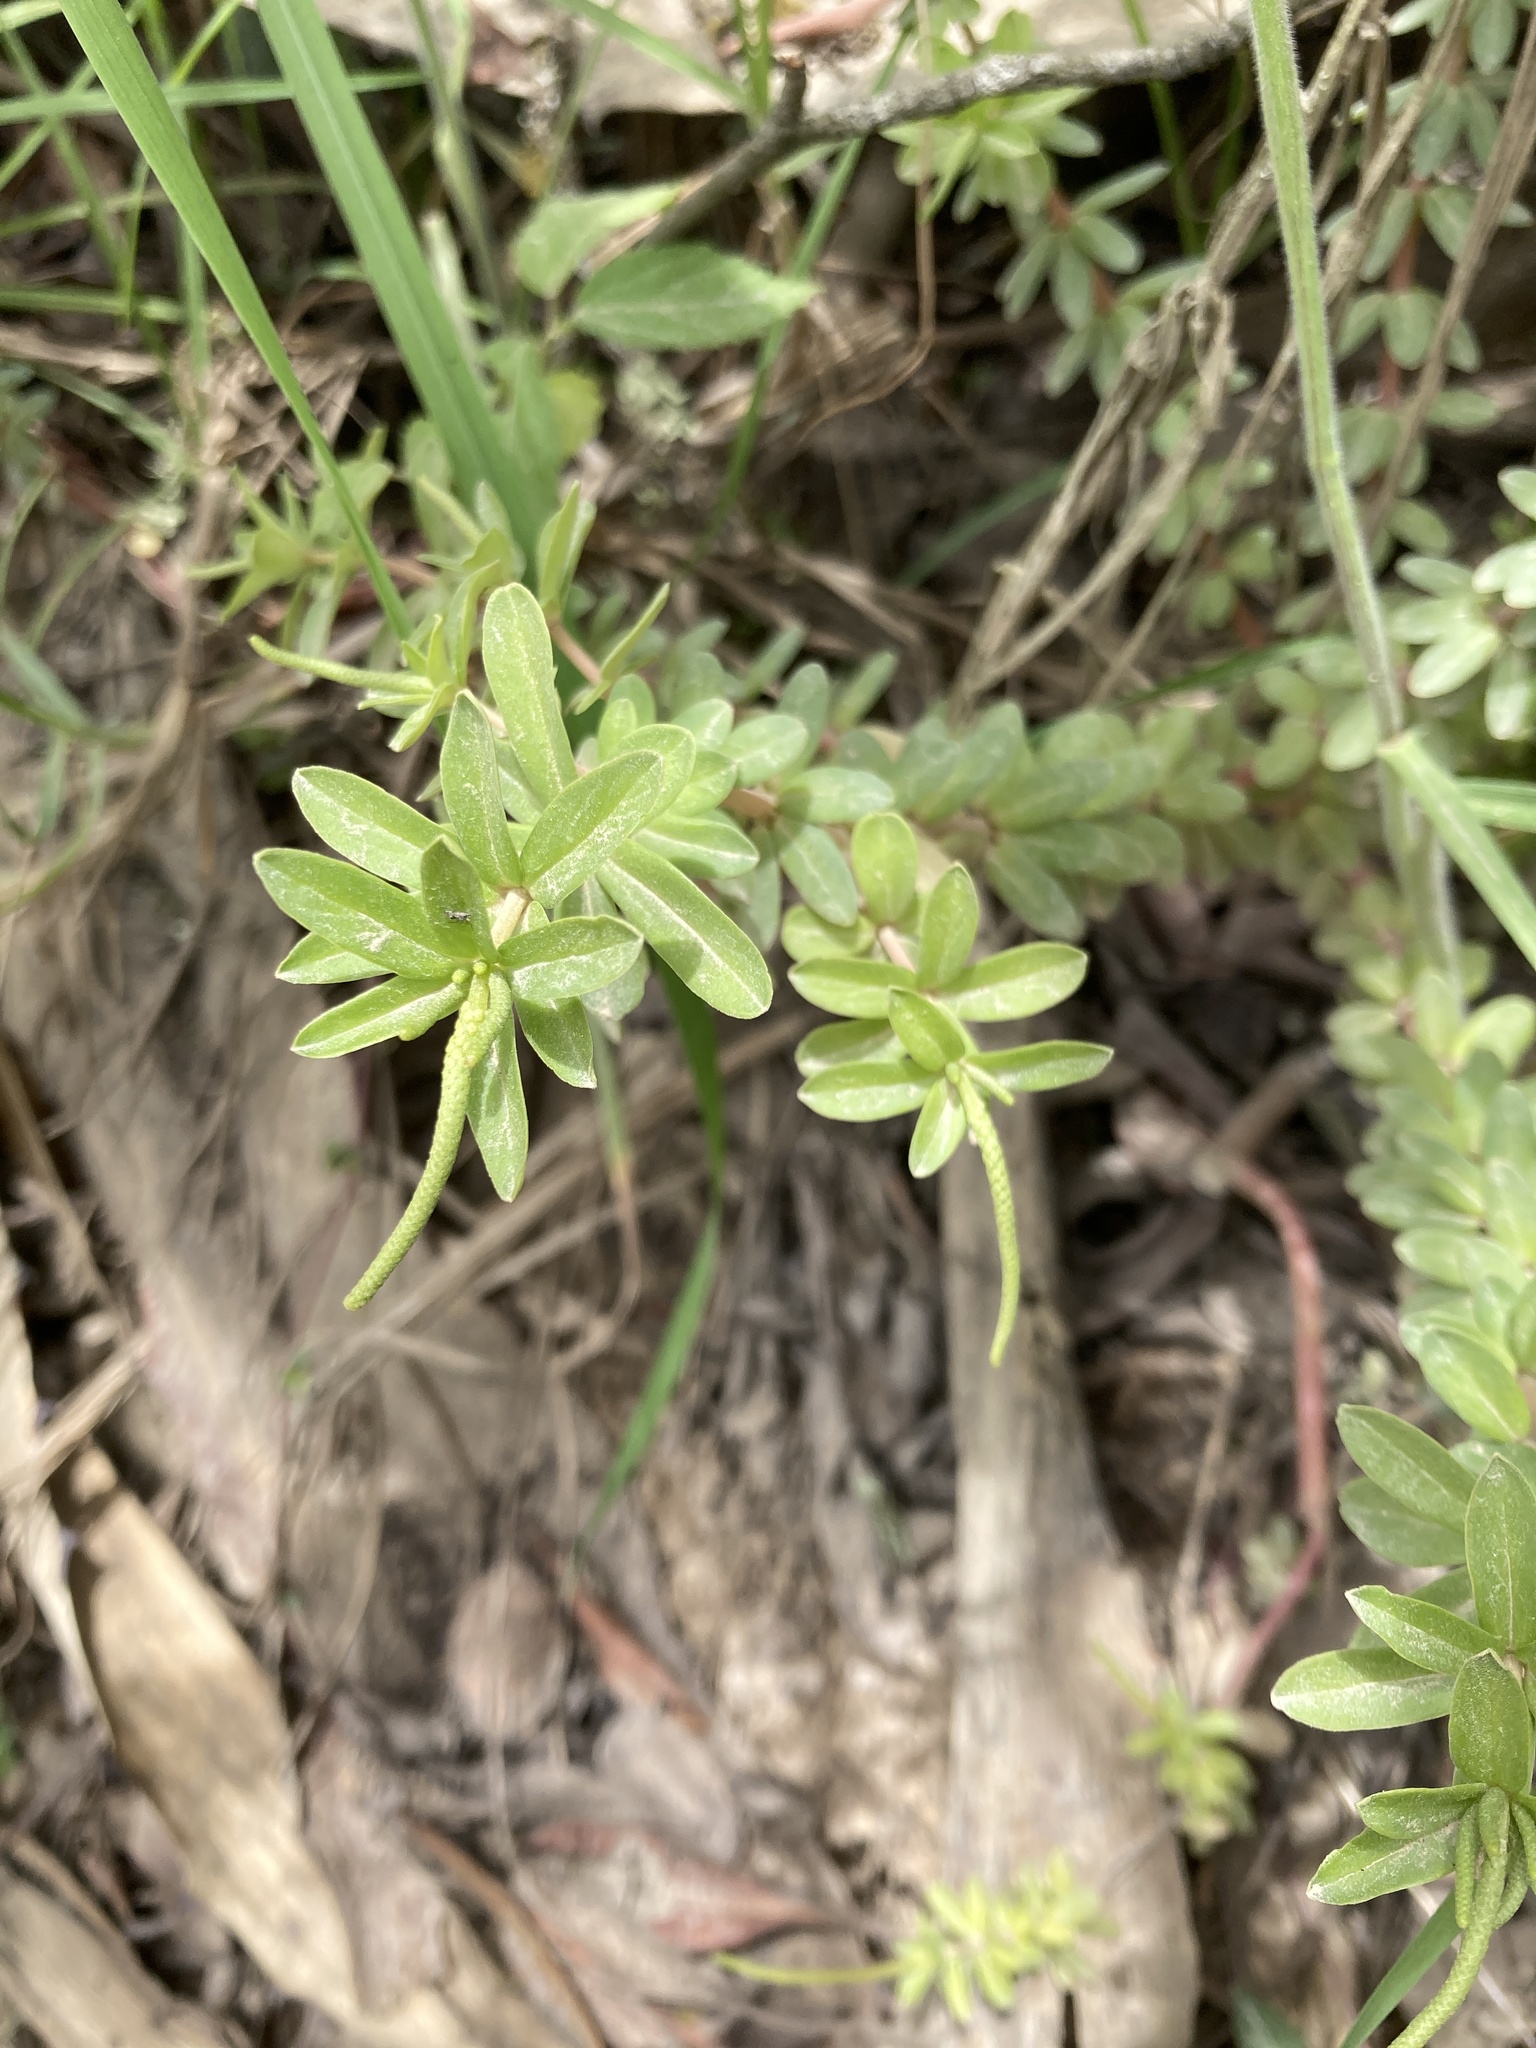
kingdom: Plantae
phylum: Tracheophyta
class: Magnoliopsida
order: Piperales
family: Piperaceae
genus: Peperomia
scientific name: Peperomia galioides
